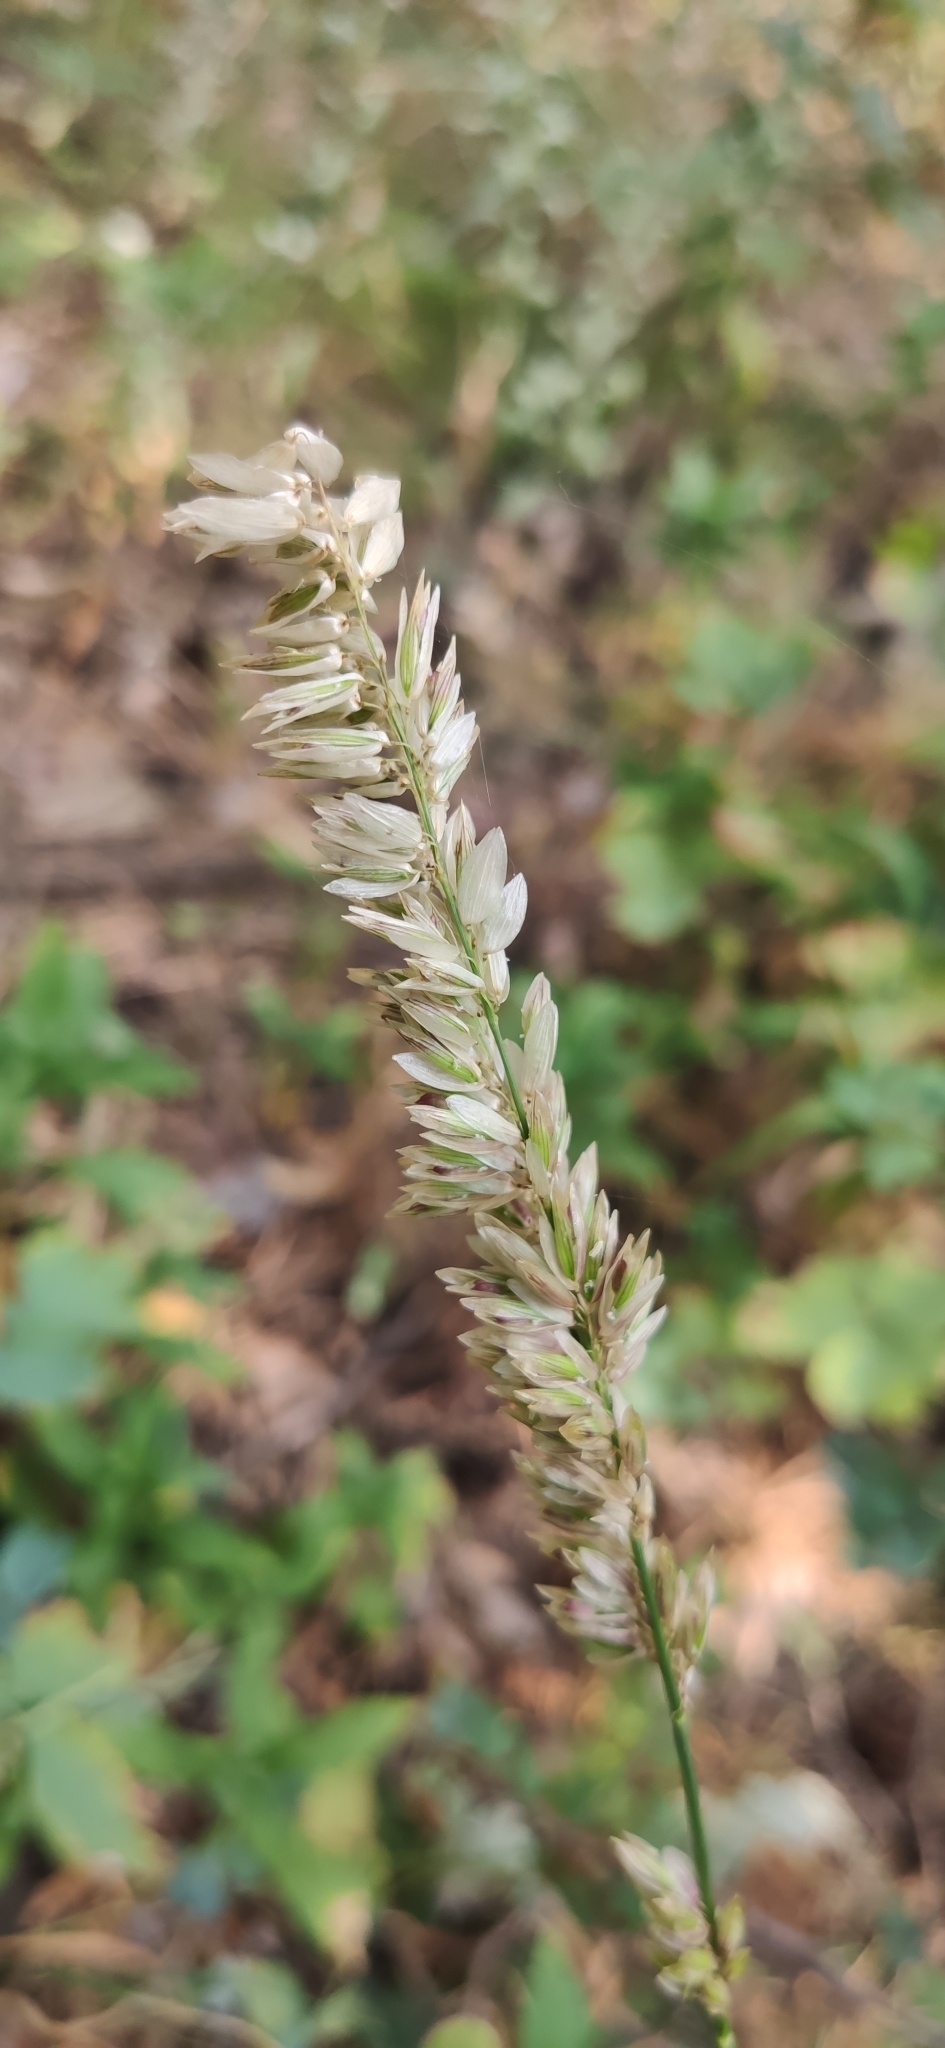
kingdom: Plantae
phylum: Tracheophyta
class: Liliopsida
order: Poales
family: Poaceae
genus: Melica
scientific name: Melica transsilvanica
